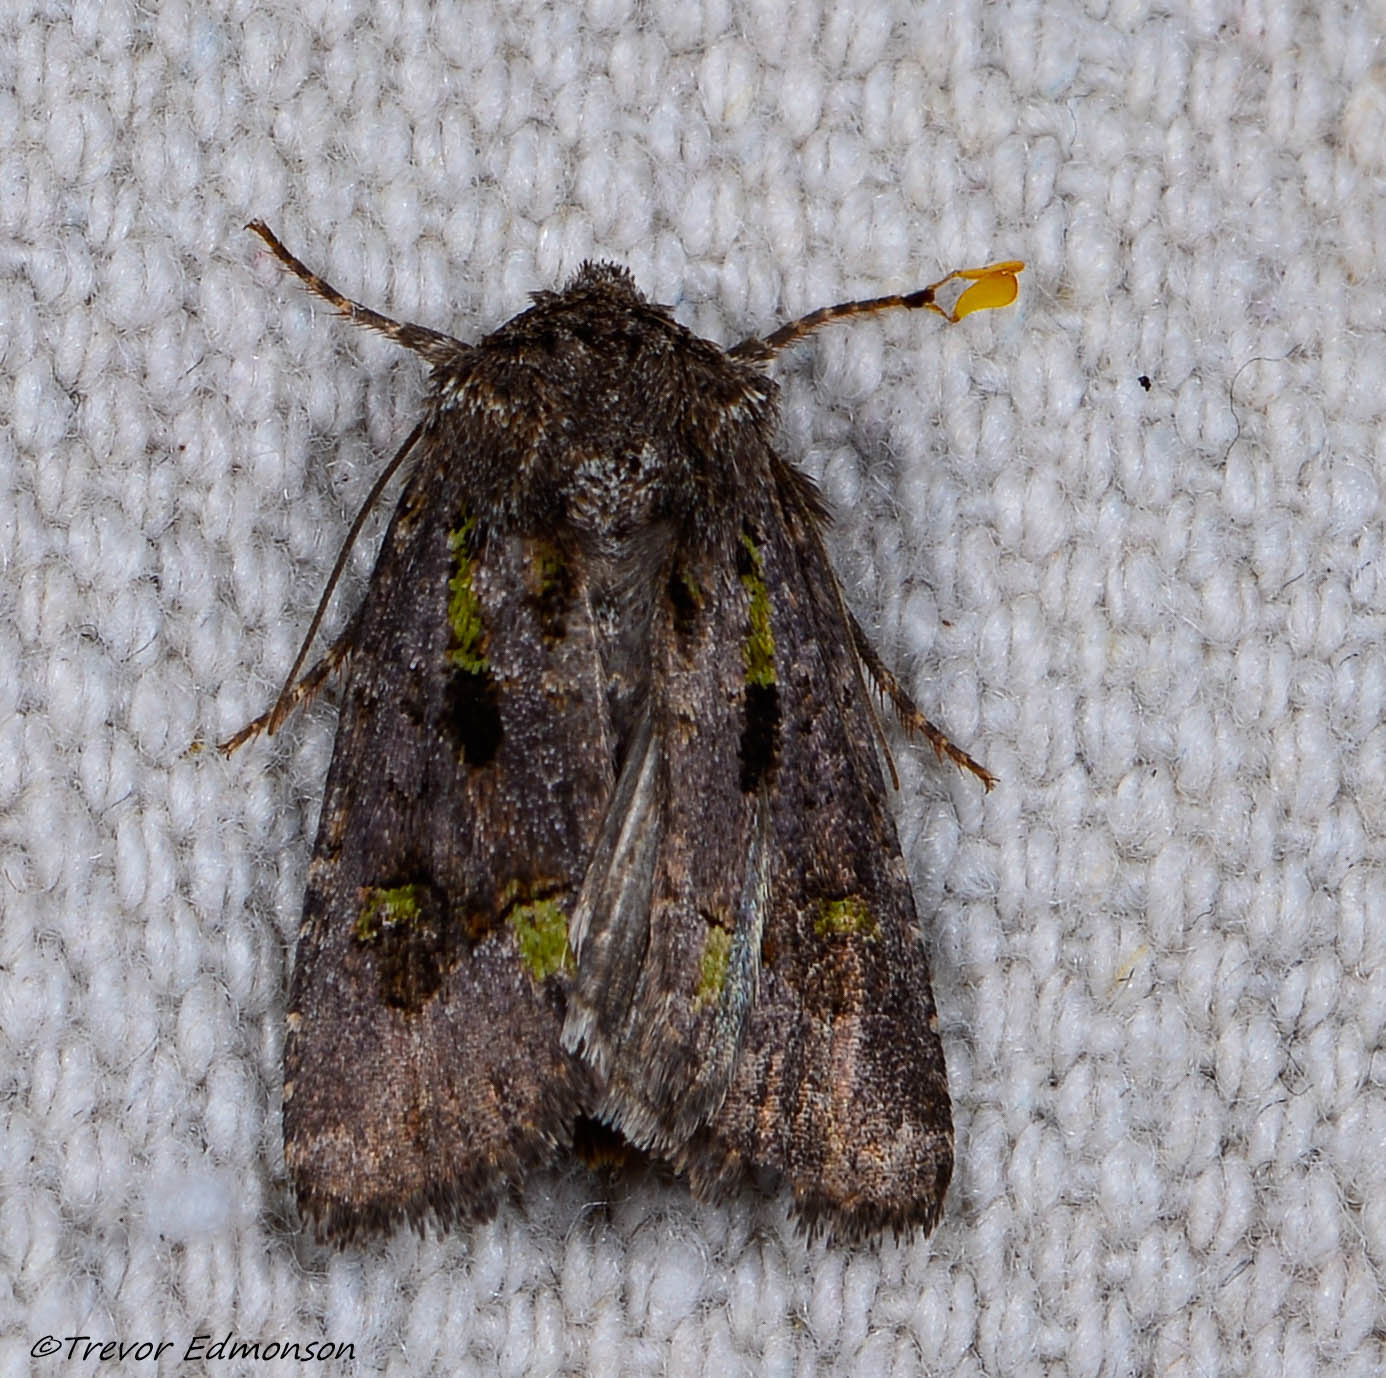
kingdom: Animalia
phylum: Arthropoda
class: Insecta
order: Lepidoptera
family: Noctuidae
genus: Lacinipolia
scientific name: Lacinipolia renigera
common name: Kidney-spotted minor
